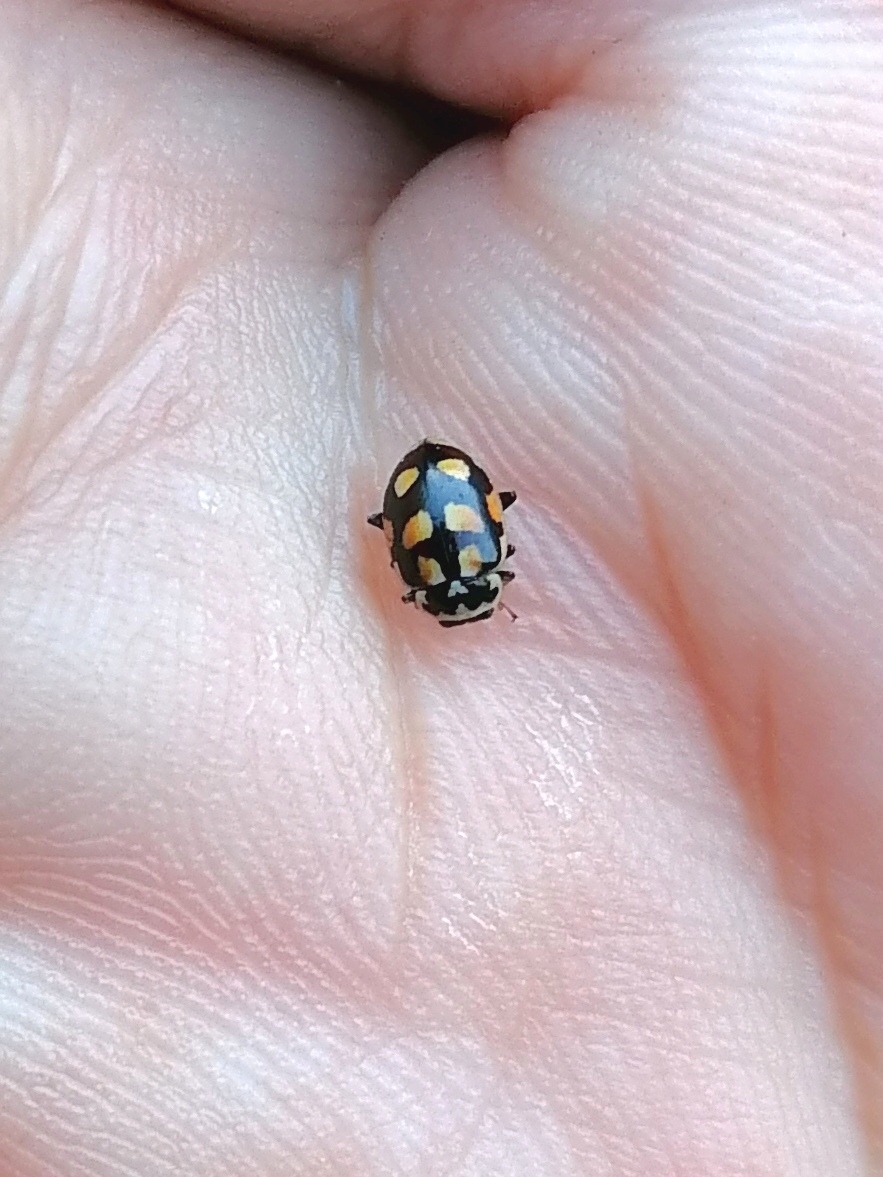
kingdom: Animalia
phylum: Arthropoda
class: Insecta
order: Coleoptera
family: Coccinellidae
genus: Hippodamia
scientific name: Hippodamia arctica
